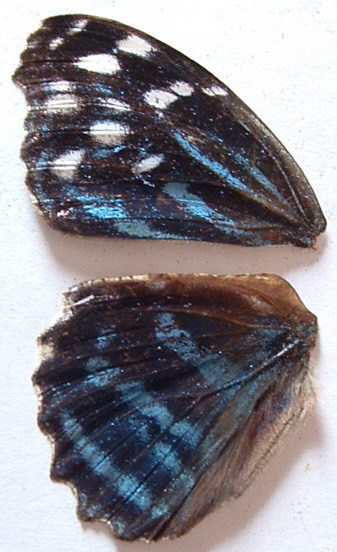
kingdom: Animalia
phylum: Arthropoda
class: Insecta
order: Lepidoptera
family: Nymphalidae
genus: Myscelia
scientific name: Myscelia ethusa
